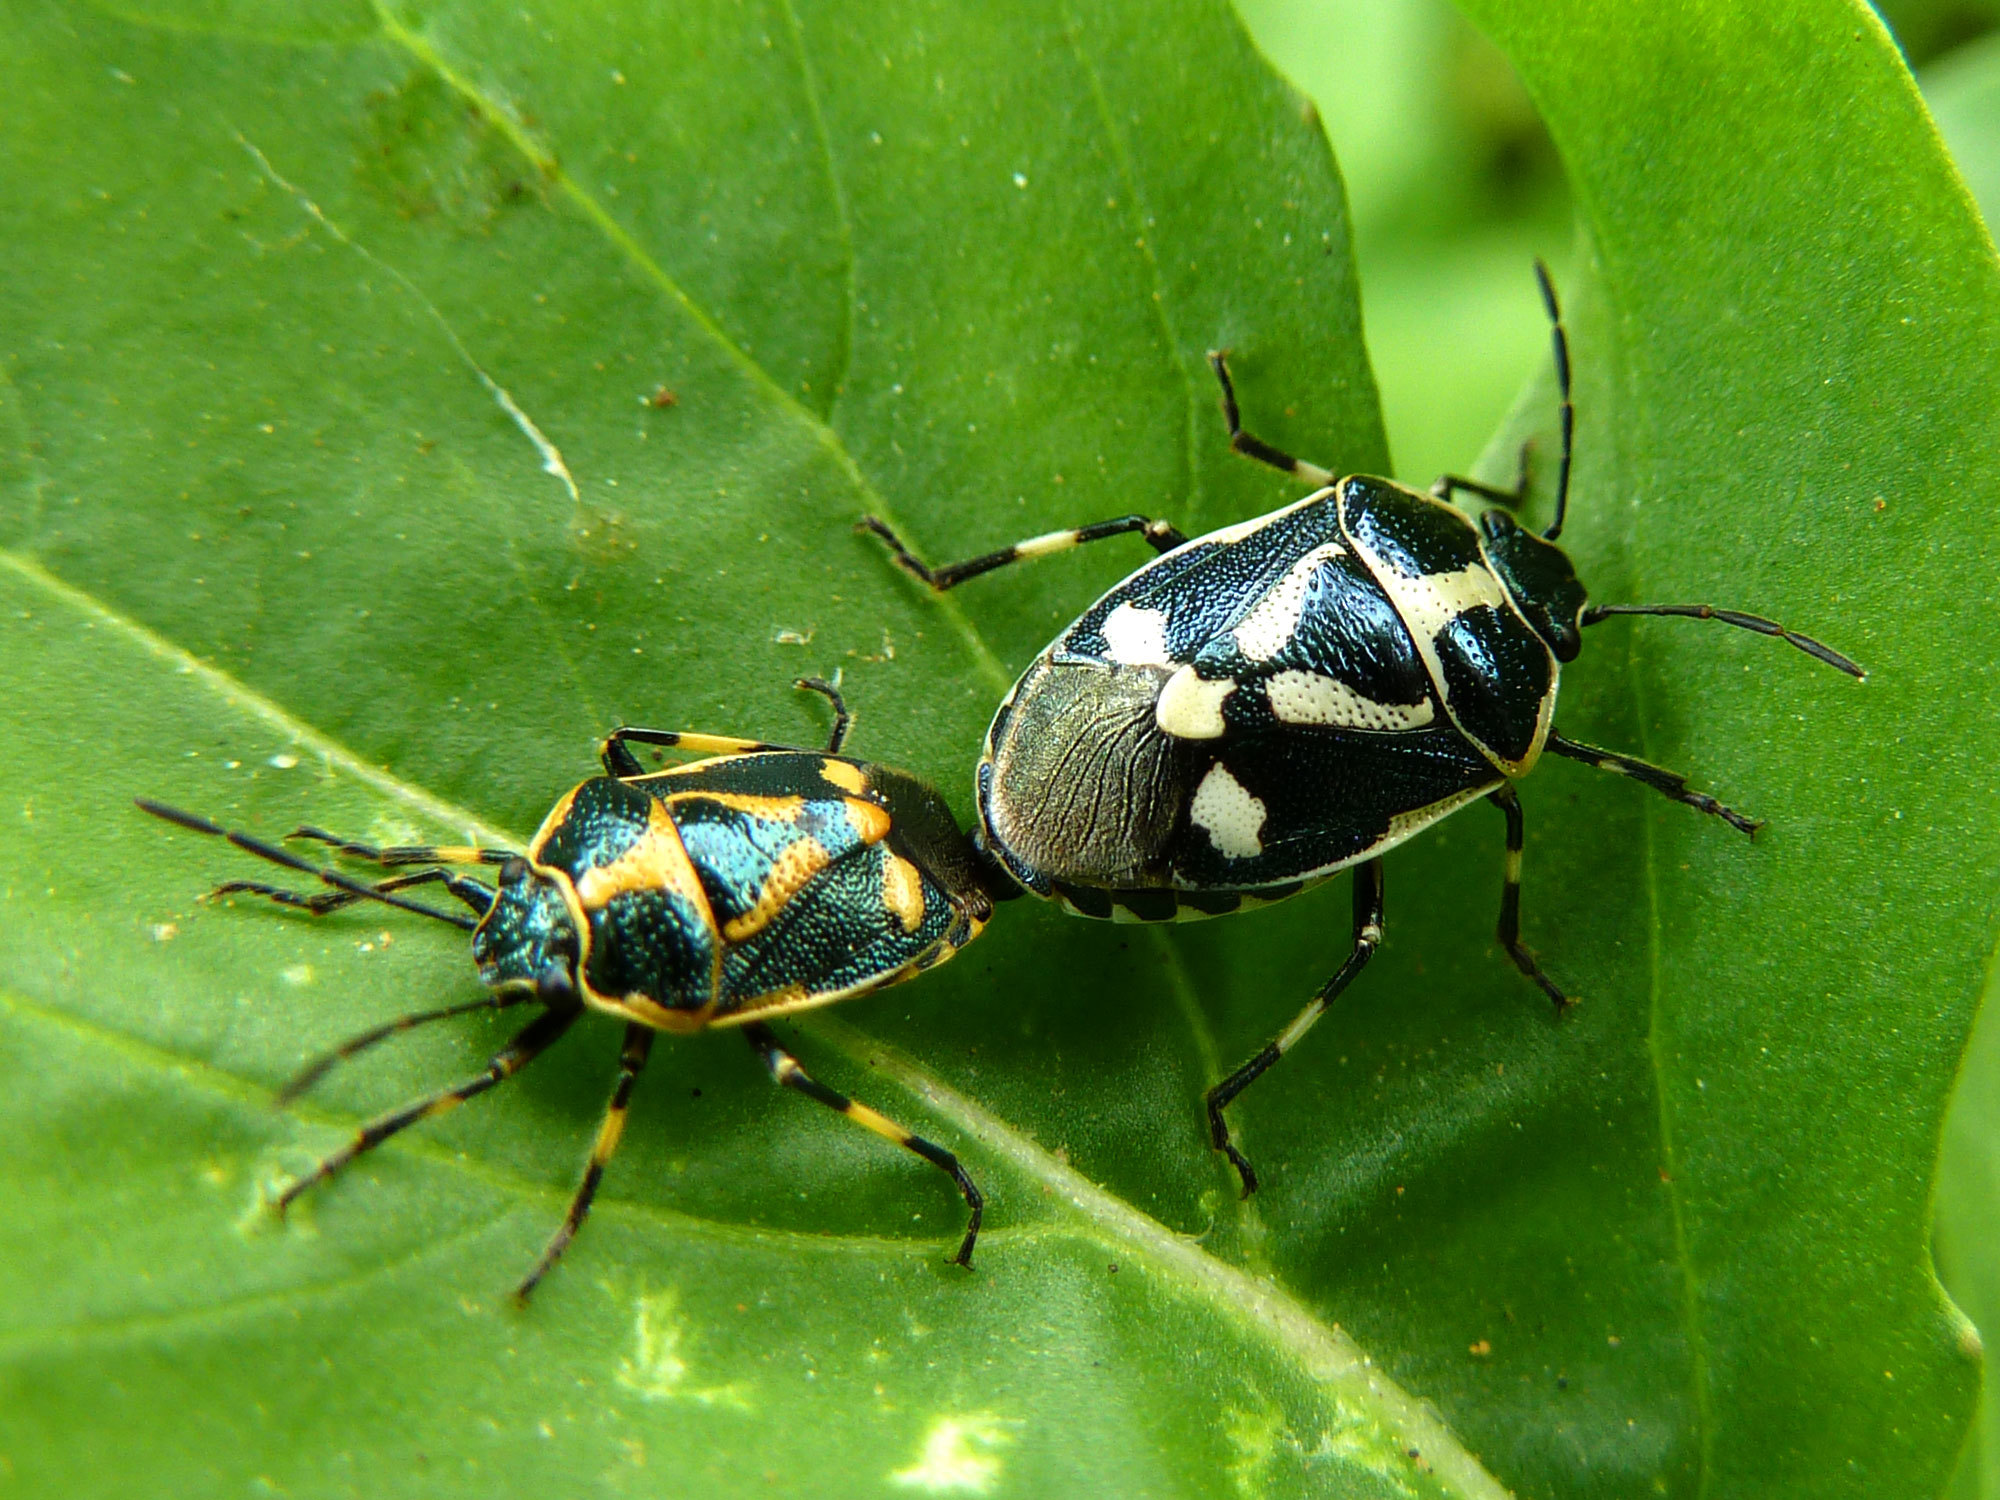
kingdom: Animalia
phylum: Arthropoda
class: Insecta
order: Hemiptera
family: Pentatomidae
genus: Eurydema
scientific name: Eurydema oleracea
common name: Cabbage bug
